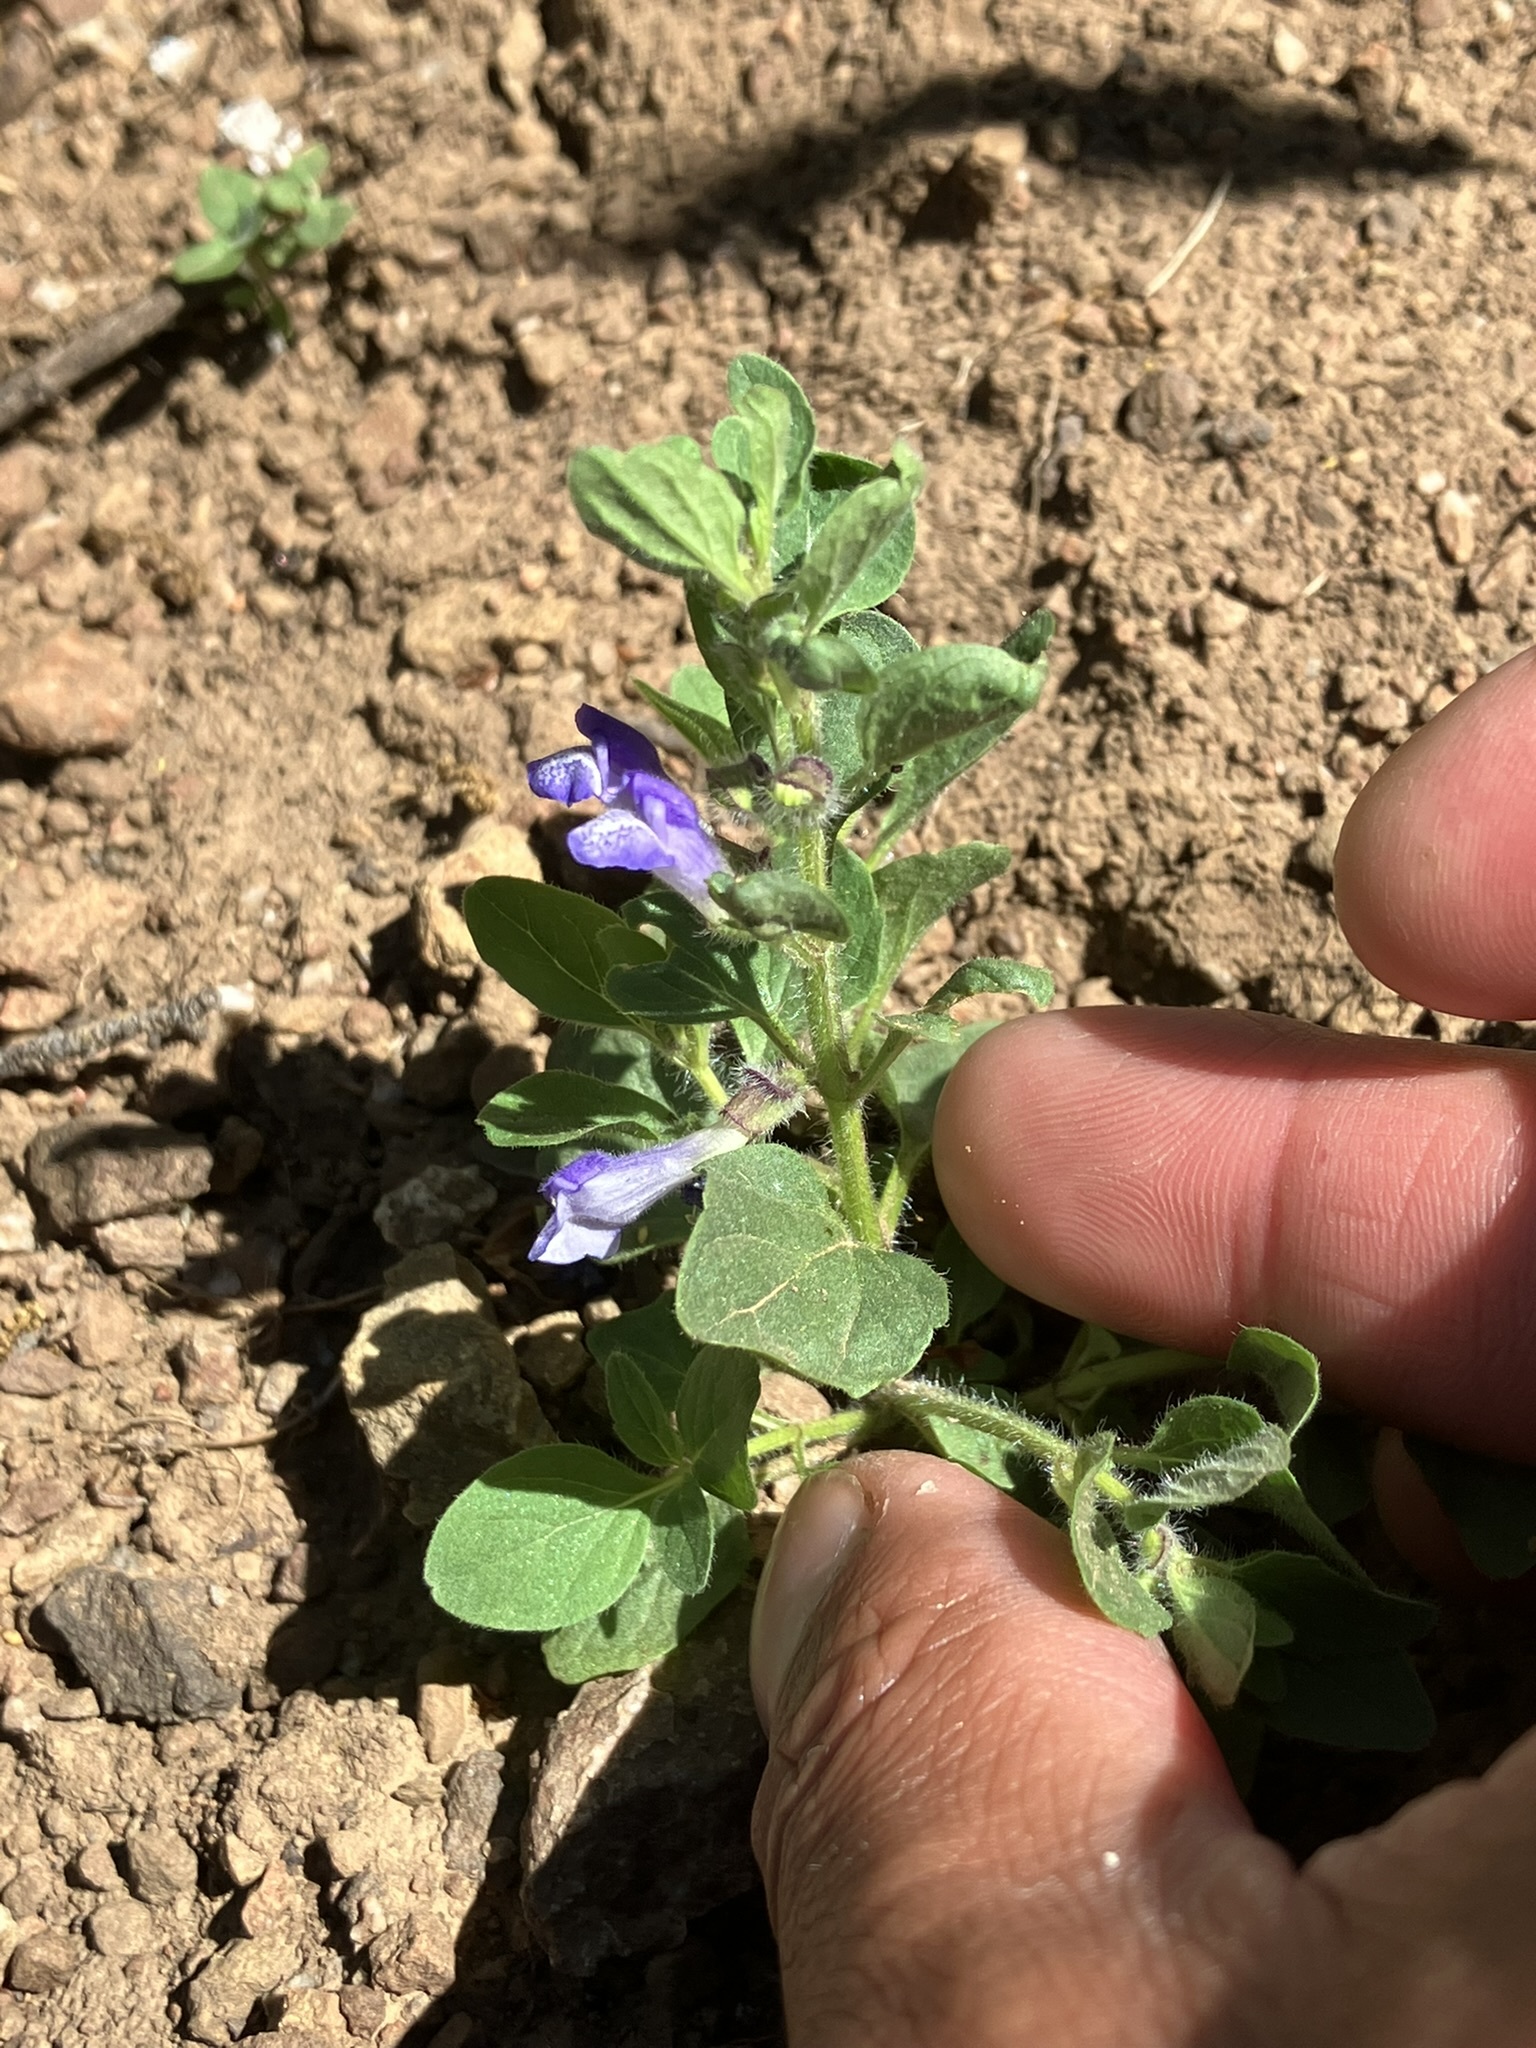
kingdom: Plantae
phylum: Tracheophyta
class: Magnoliopsida
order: Lamiales
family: Lamiaceae
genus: Scutellaria
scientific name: Scutellaria tuberosa
